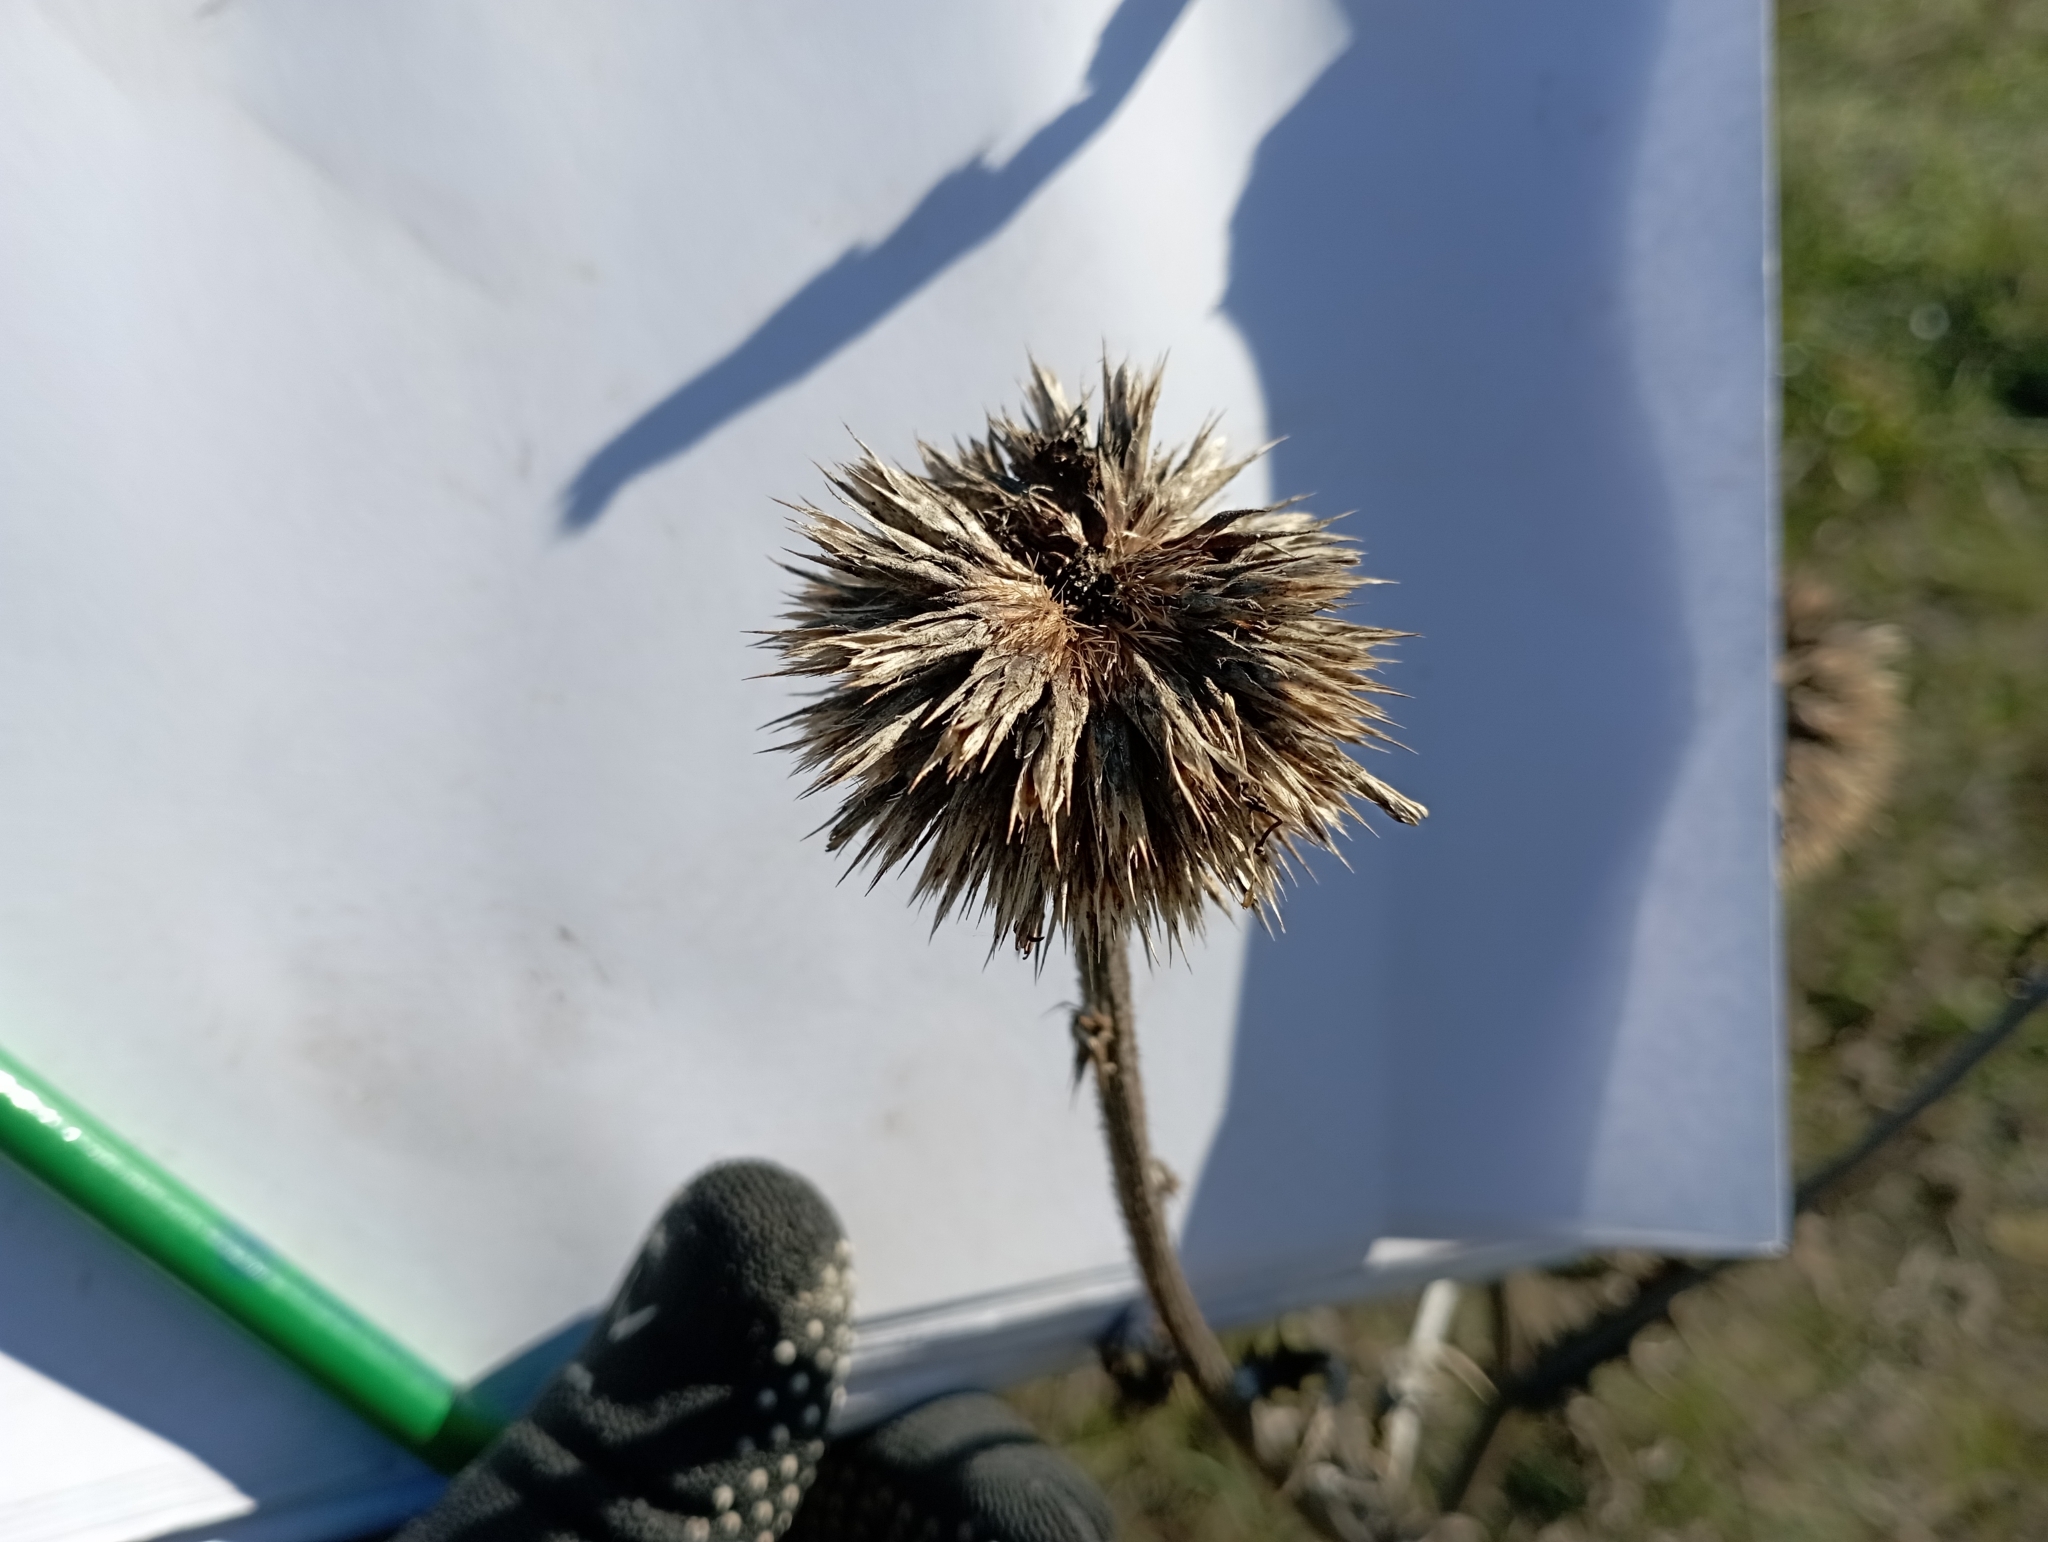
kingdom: Plantae
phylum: Tracheophyta
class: Magnoliopsida
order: Asterales
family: Asteraceae
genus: Echinops
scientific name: Echinops sphaerocephalus
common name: Glandular globe-thistle
